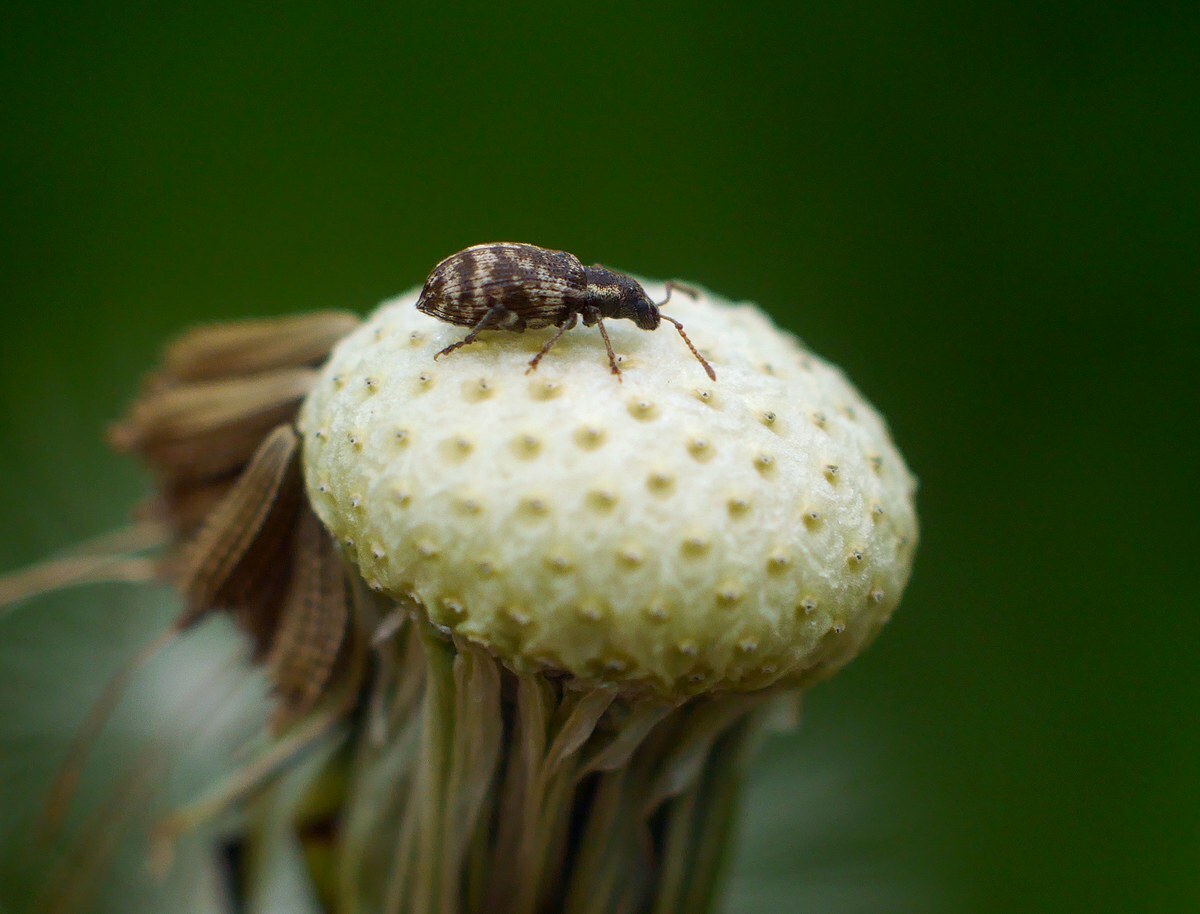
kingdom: Animalia
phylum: Arthropoda
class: Insecta
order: Coleoptera
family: Curculionidae
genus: Oedecnemidius
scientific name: Oedecnemidius varius
